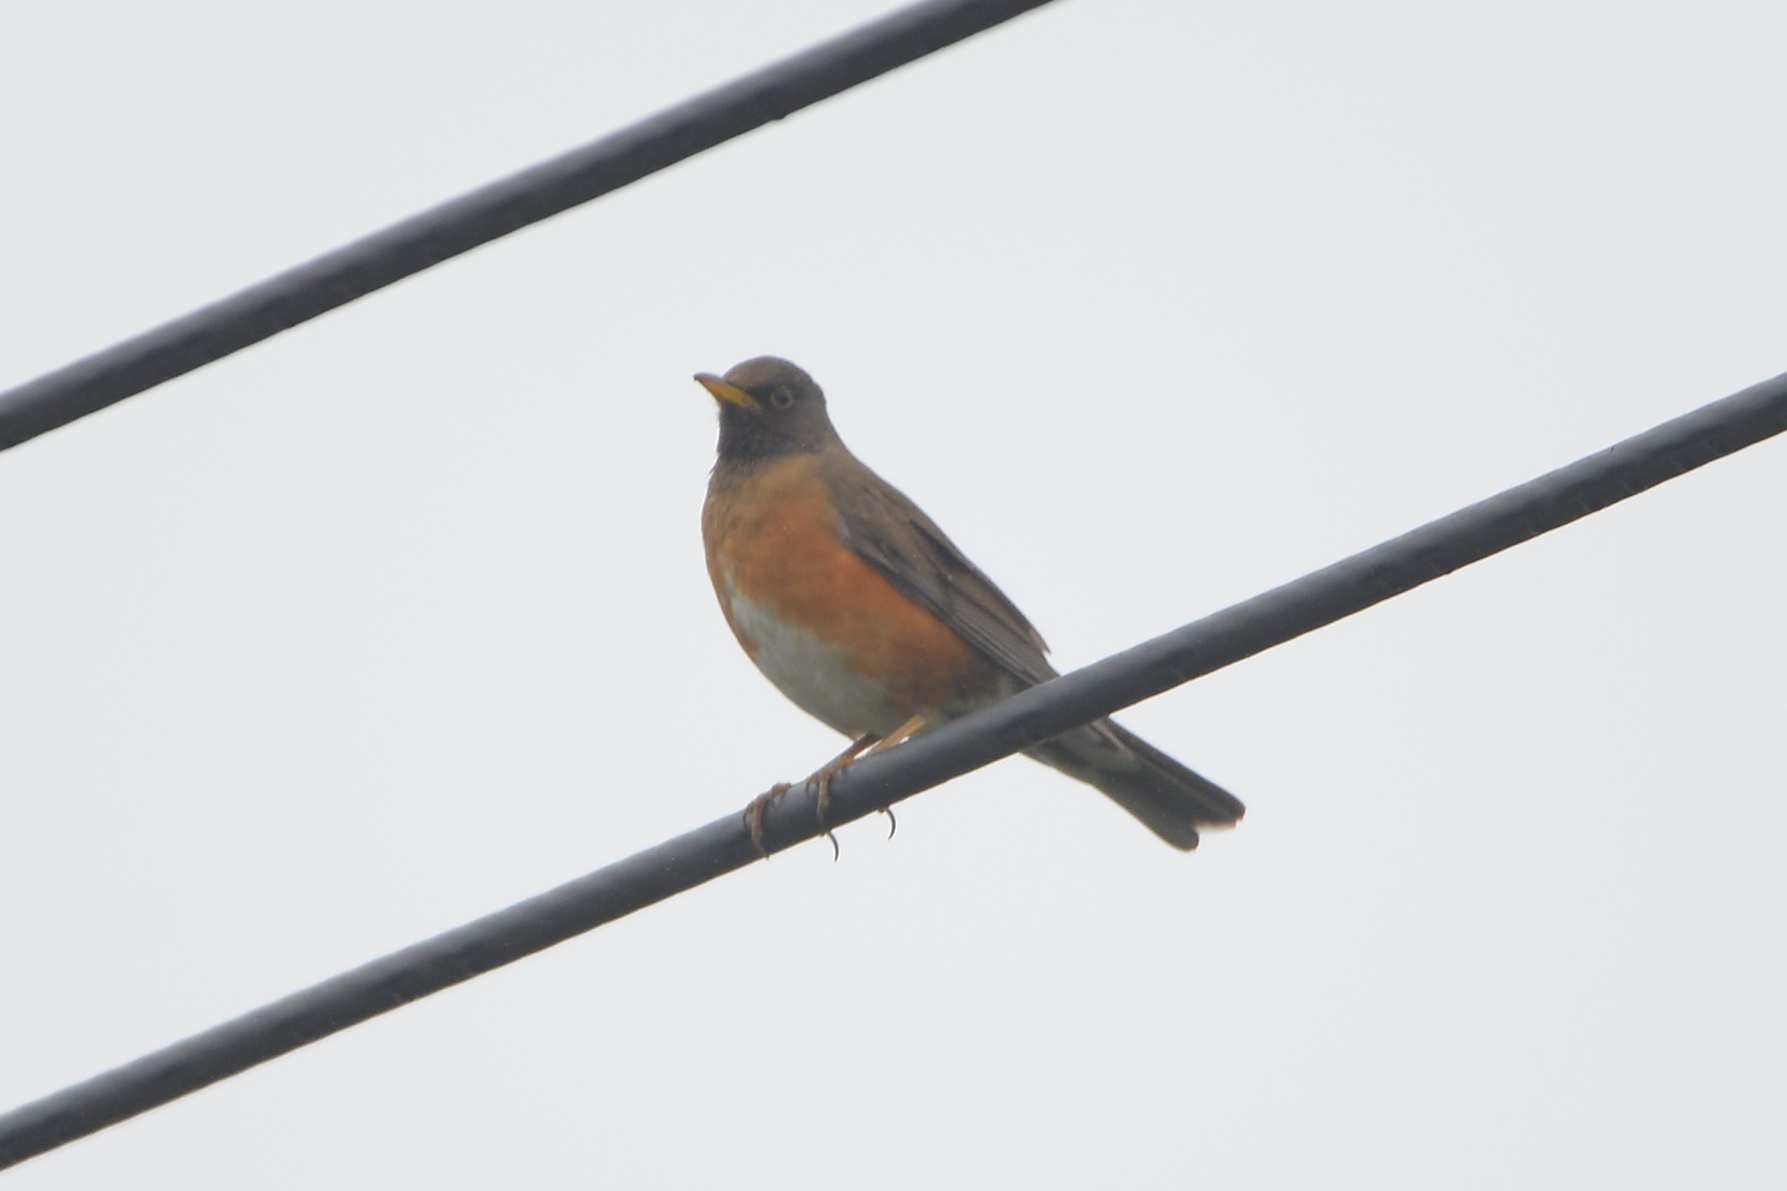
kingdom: Animalia
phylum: Chordata
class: Aves
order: Passeriformes
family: Turdidae
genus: Turdus
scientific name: Turdus chrysolaus
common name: Brown-headed thrush
